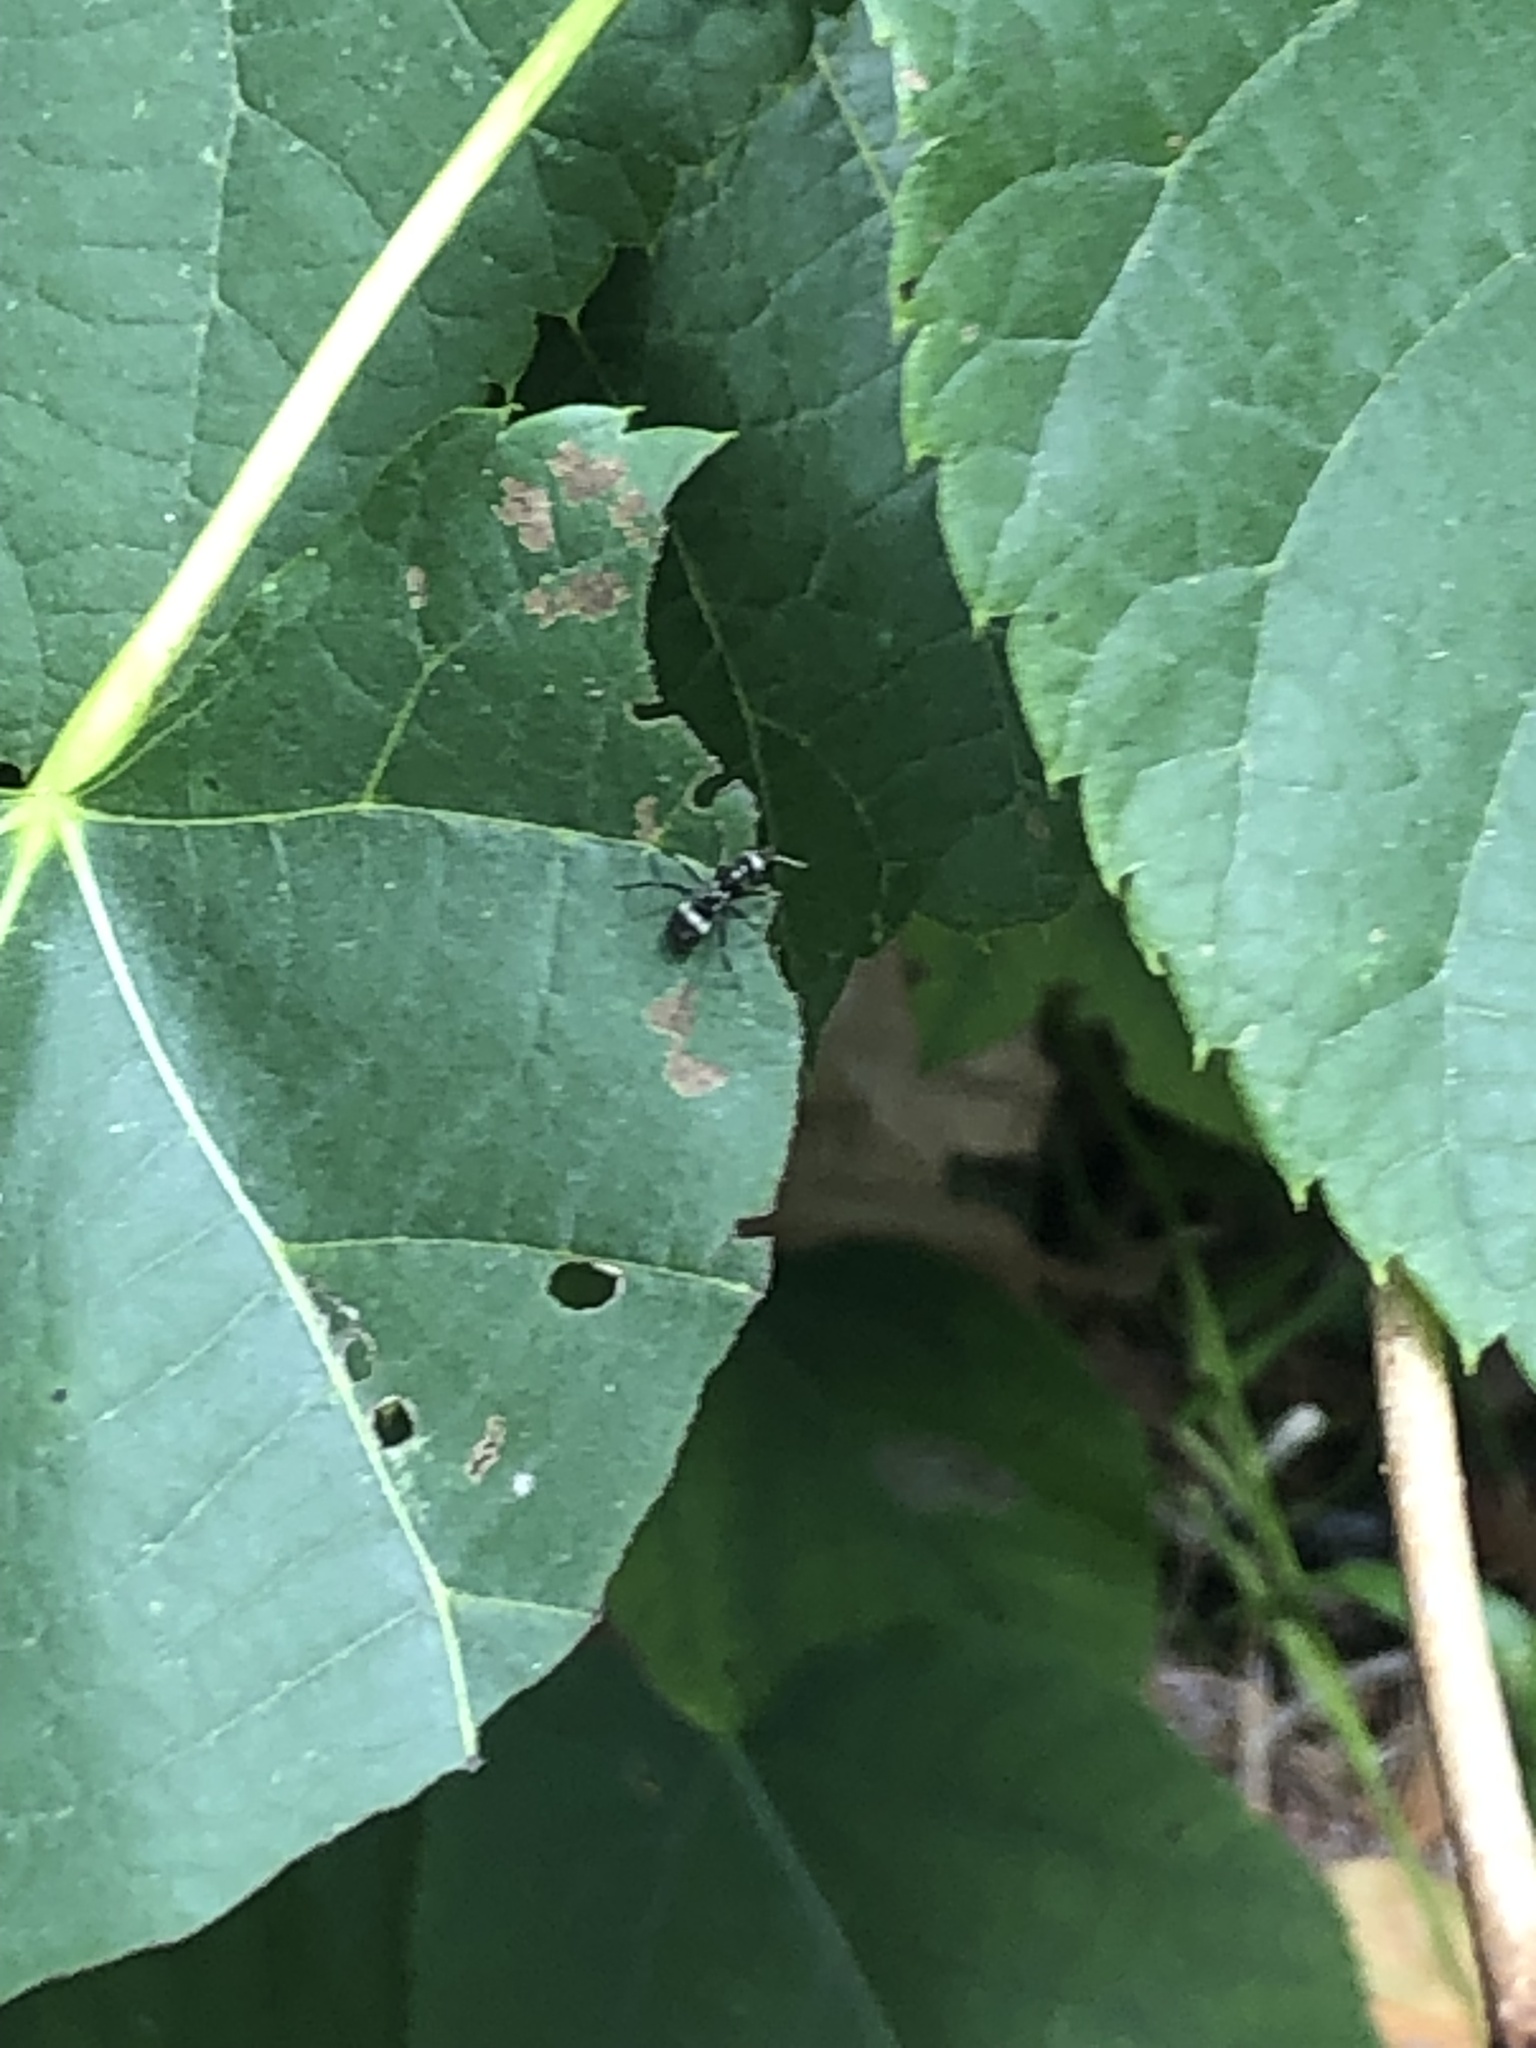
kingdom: Animalia
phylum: Arthropoda
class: Insecta
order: Hymenoptera
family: Formicidae
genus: Formica
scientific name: Formica
